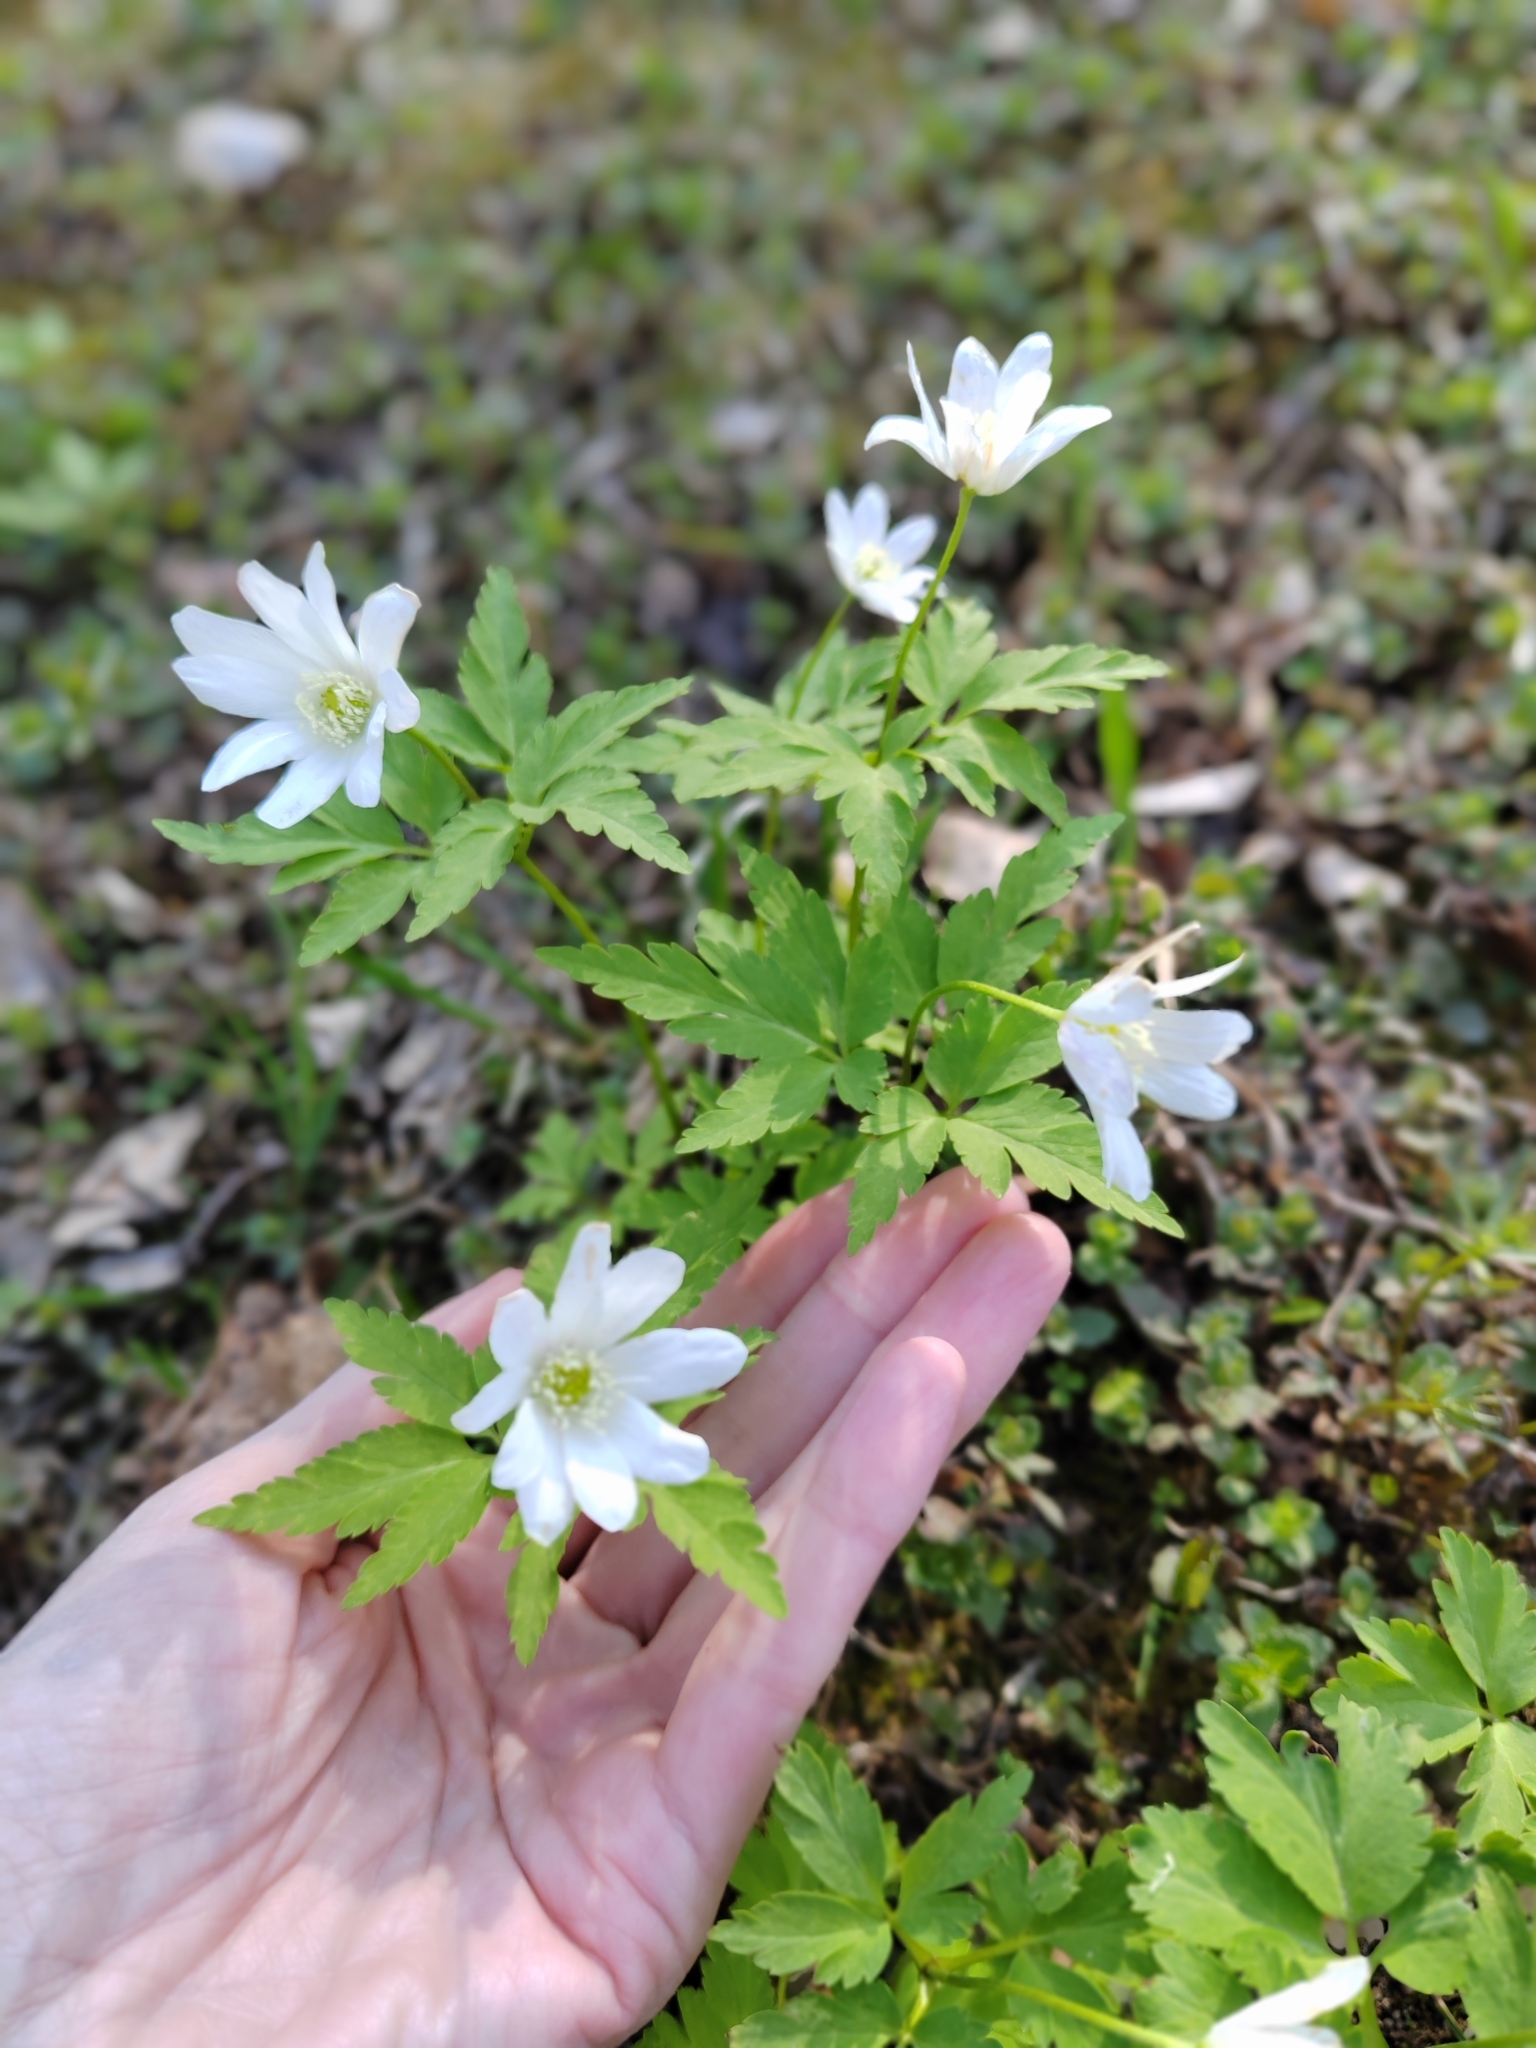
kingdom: Plantae
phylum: Tracheophyta
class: Magnoliopsida
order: Ranunculales
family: Ranunculaceae
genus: Anemone
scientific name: Anemone altaica
